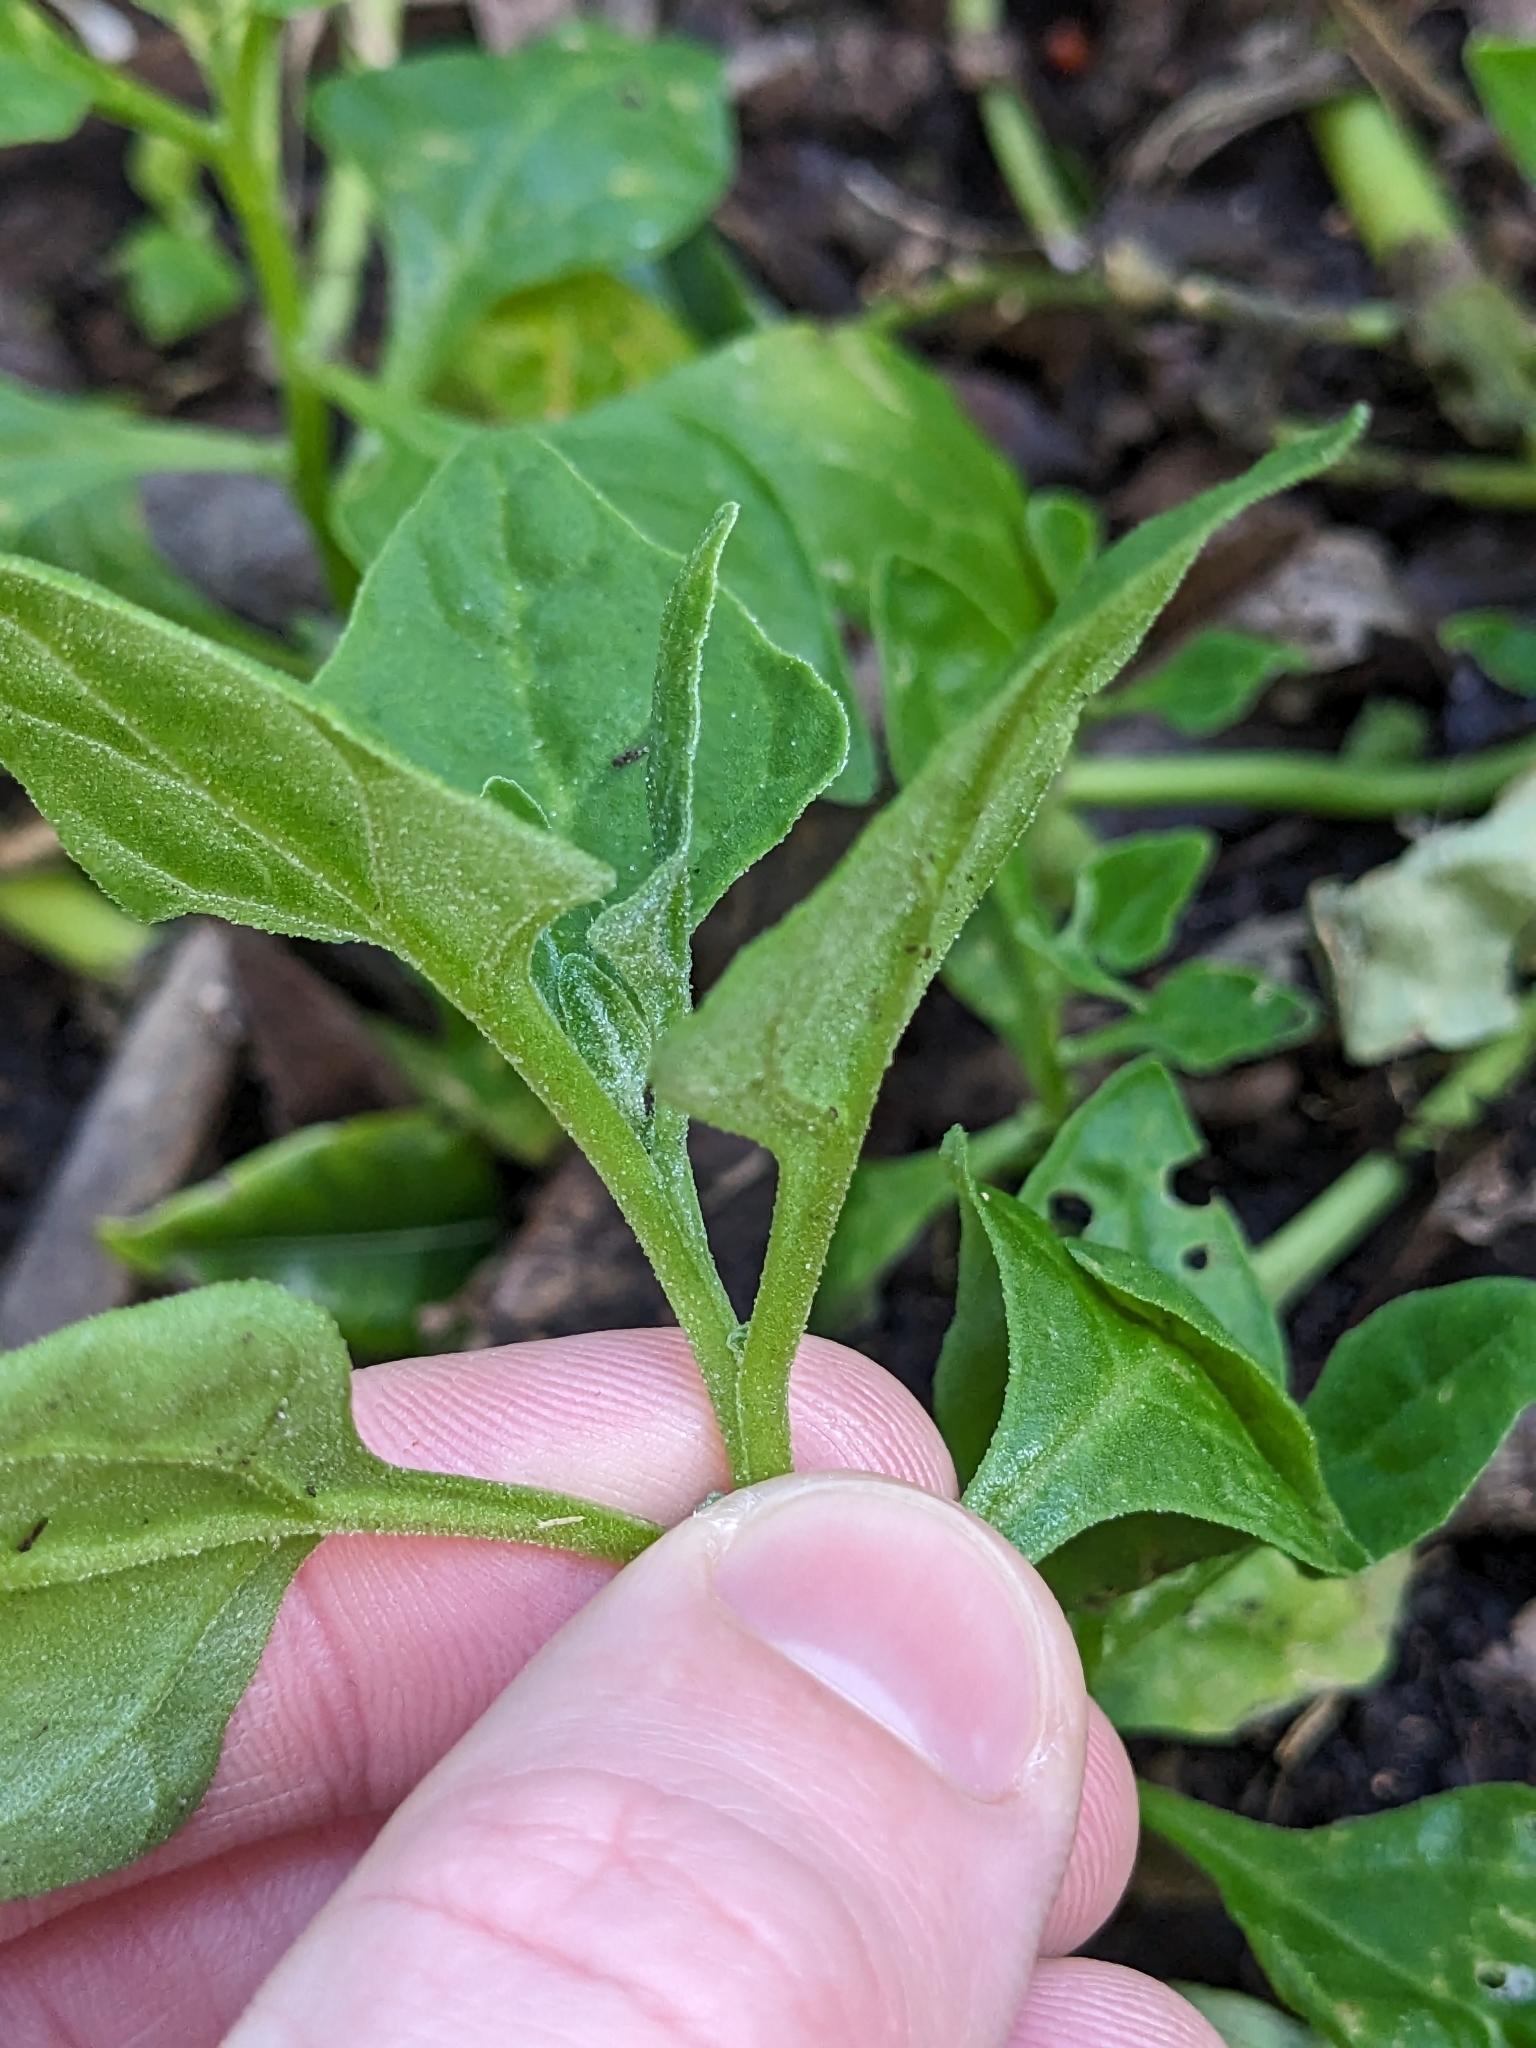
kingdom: Plantae
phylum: Tracheophyta
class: Magnoliopsida
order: Caryophyllales
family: Aizoaceae
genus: Tetragonia
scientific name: Tetragonia tetragonoides
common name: New zealand-spinach
